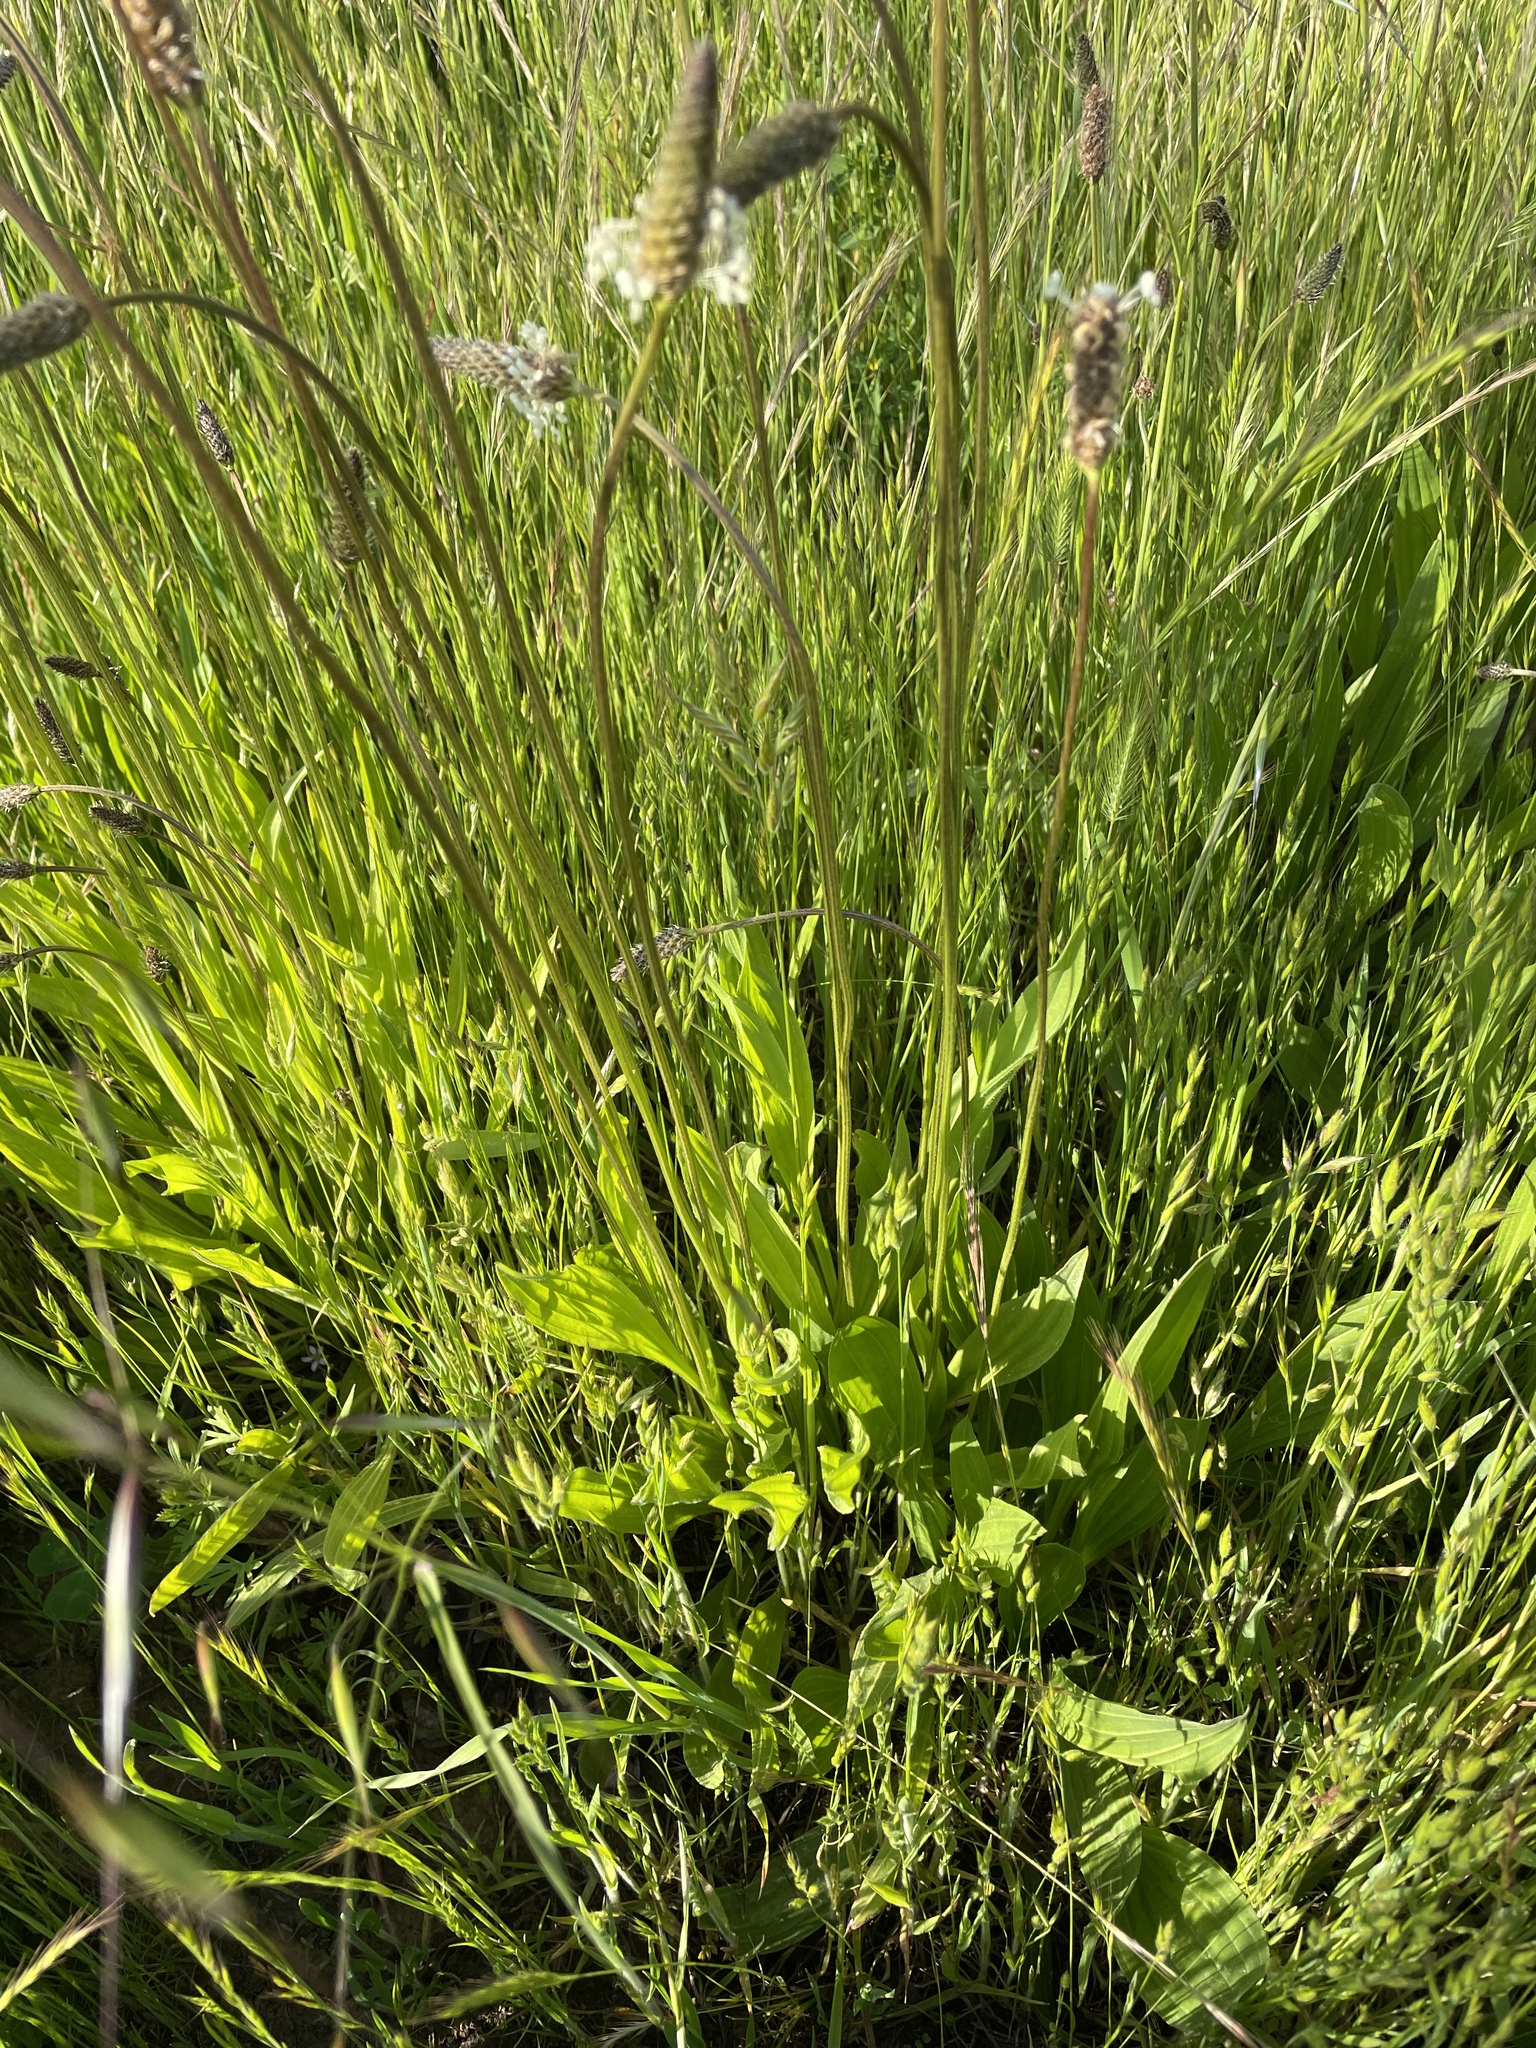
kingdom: Plantae
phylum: Tracheophyta
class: Magnoliopsida
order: Lamiales
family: Plantaginaceae
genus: Plantago
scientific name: Plantago lanceolata
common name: Ribwort plantain
